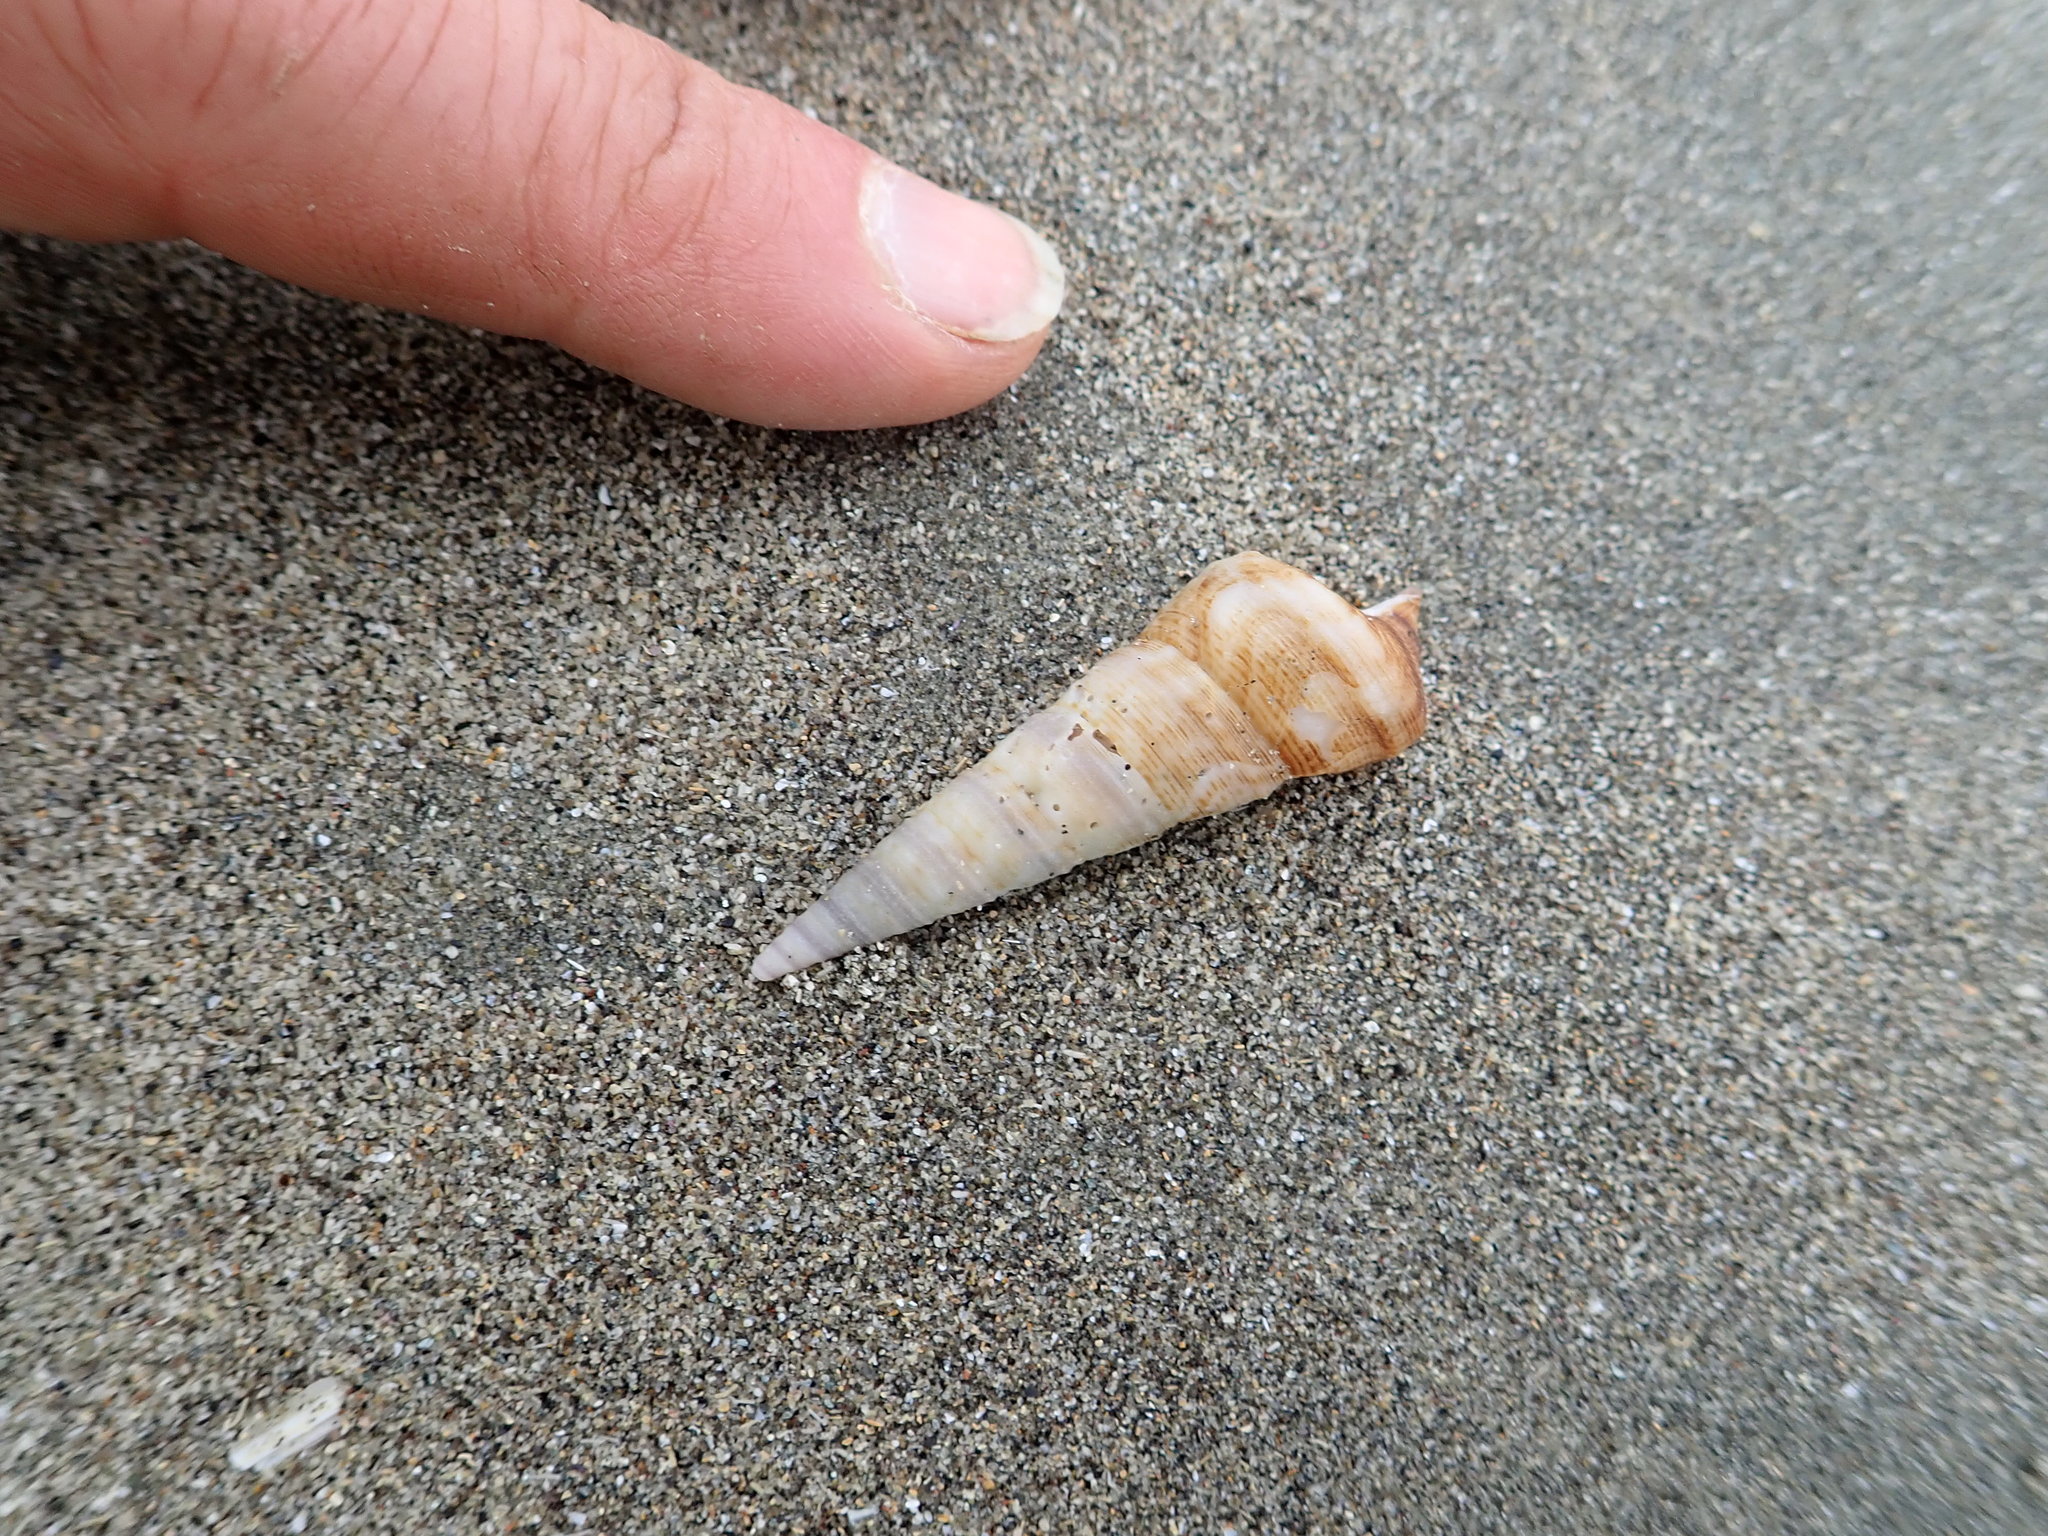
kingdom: Animalia
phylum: Mollusca
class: Gastropoda
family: Turritellidae
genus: Maoricolpus
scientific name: Maoricolpus roseus
